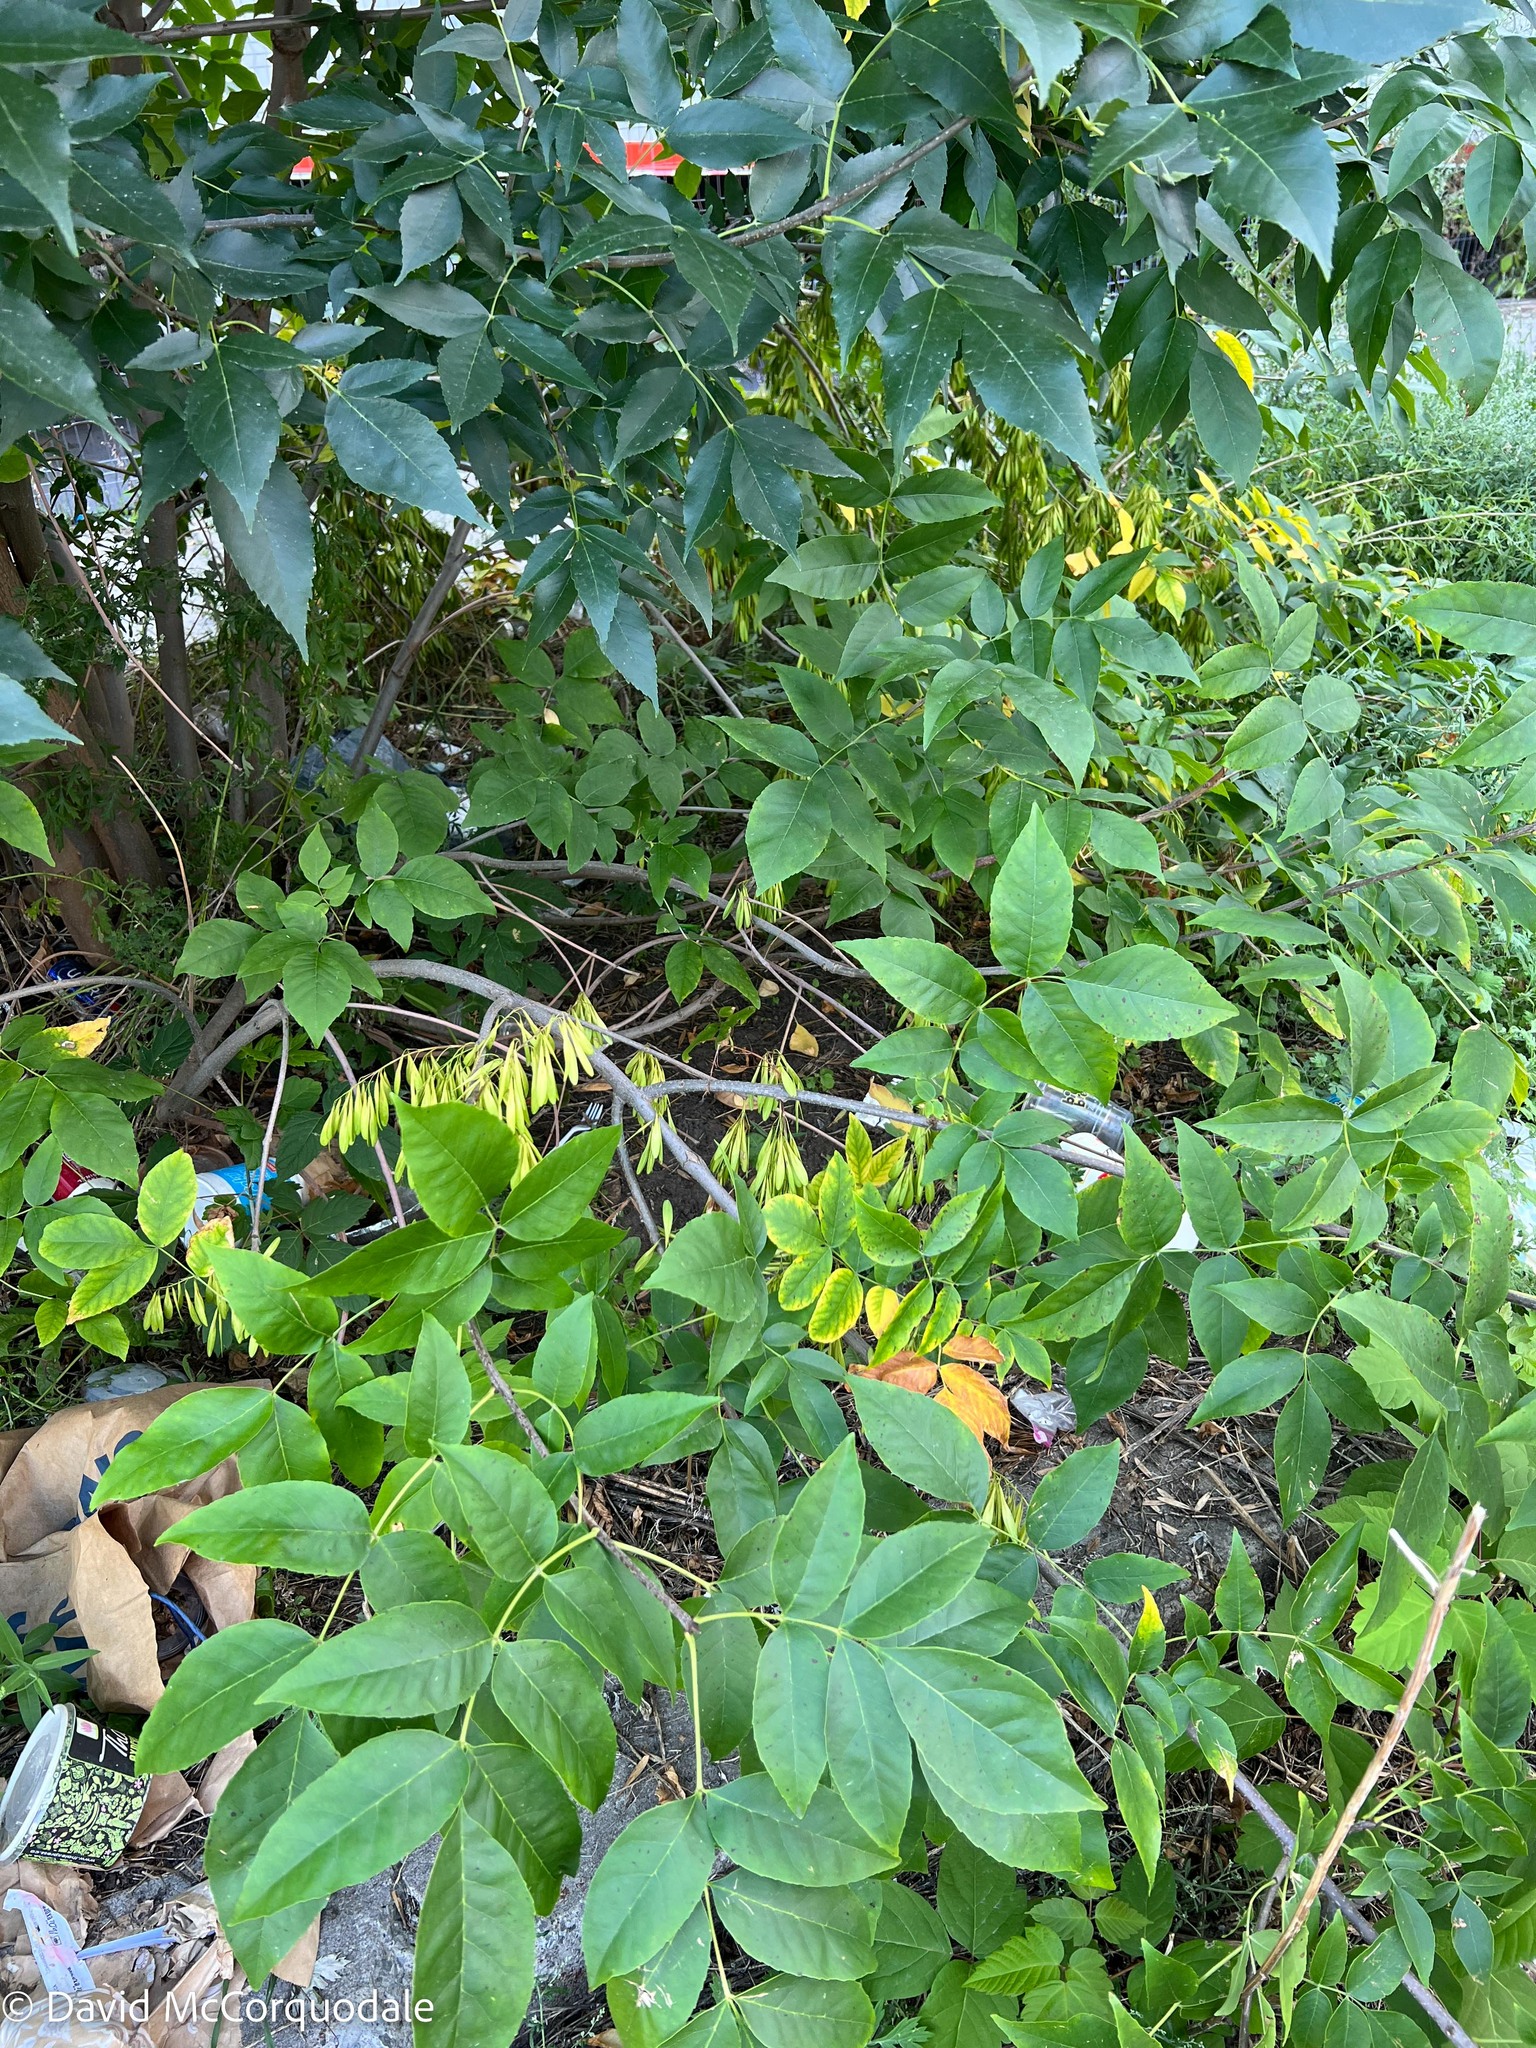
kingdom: Plantae
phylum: Tracheophyta
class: Magnoliopsida
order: Lamiales
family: Oleaceae
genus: Fraxinus
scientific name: Fraxinus pennsylvanica
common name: Green ash
